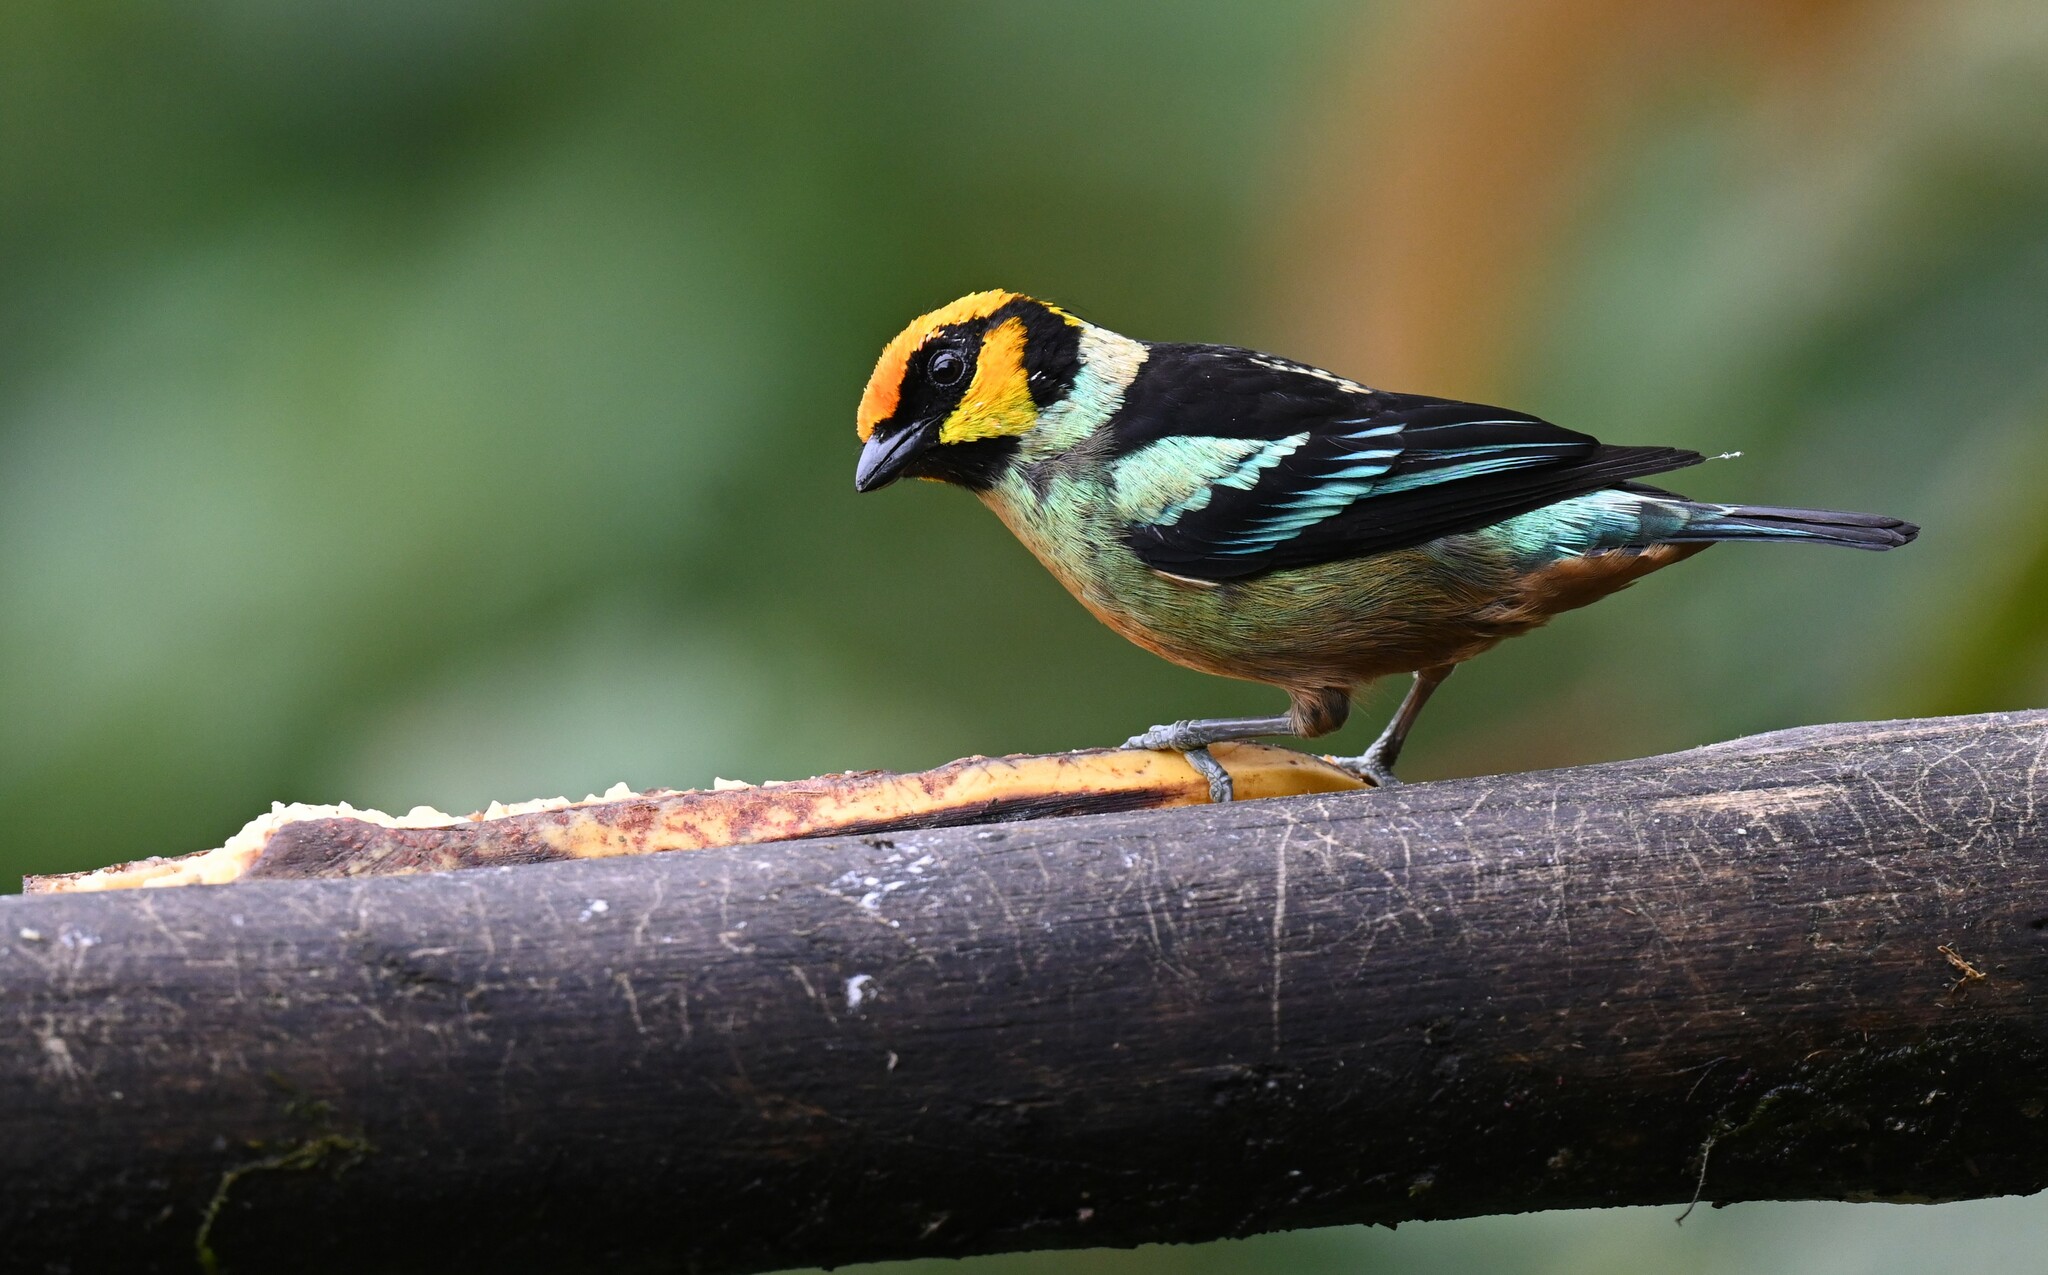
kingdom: Animalia
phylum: Chordata
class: Aves
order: Passeriformes
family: Thraupidae
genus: Tangara
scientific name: Tangara parzudakii
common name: Flame-faced tanager
